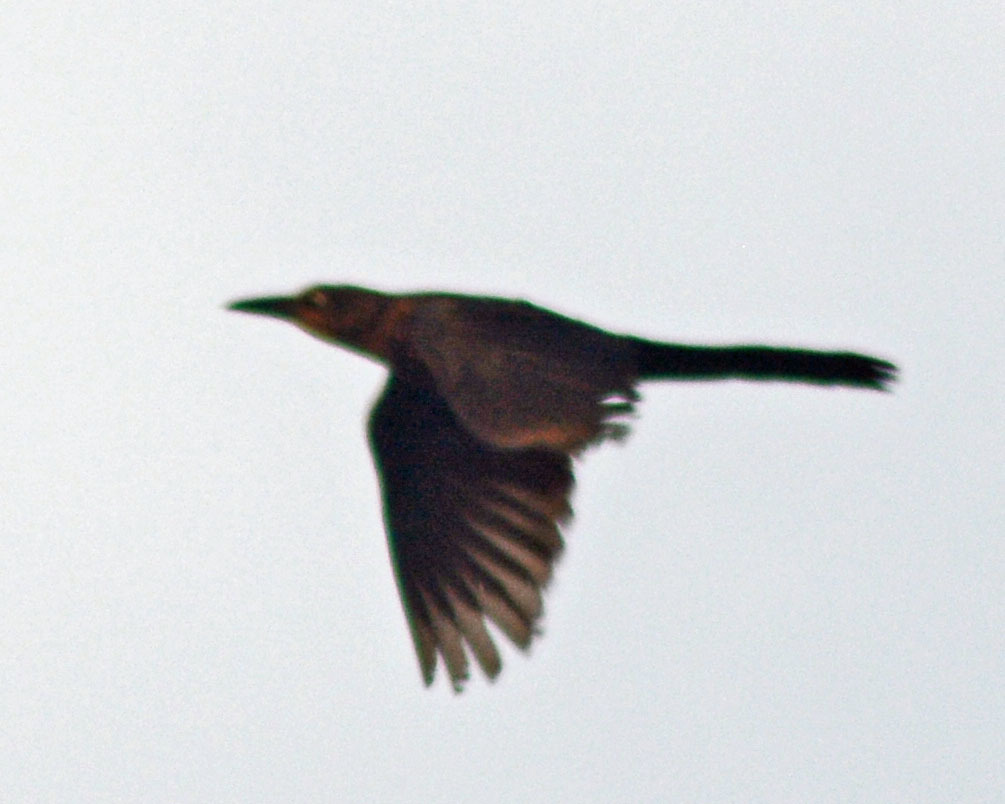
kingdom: Animalia
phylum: Chordata
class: Aves
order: Passeriformes
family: Icteridae
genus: Quiscalus
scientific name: Quiscalus mexicanus
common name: Great-tailed grackle
